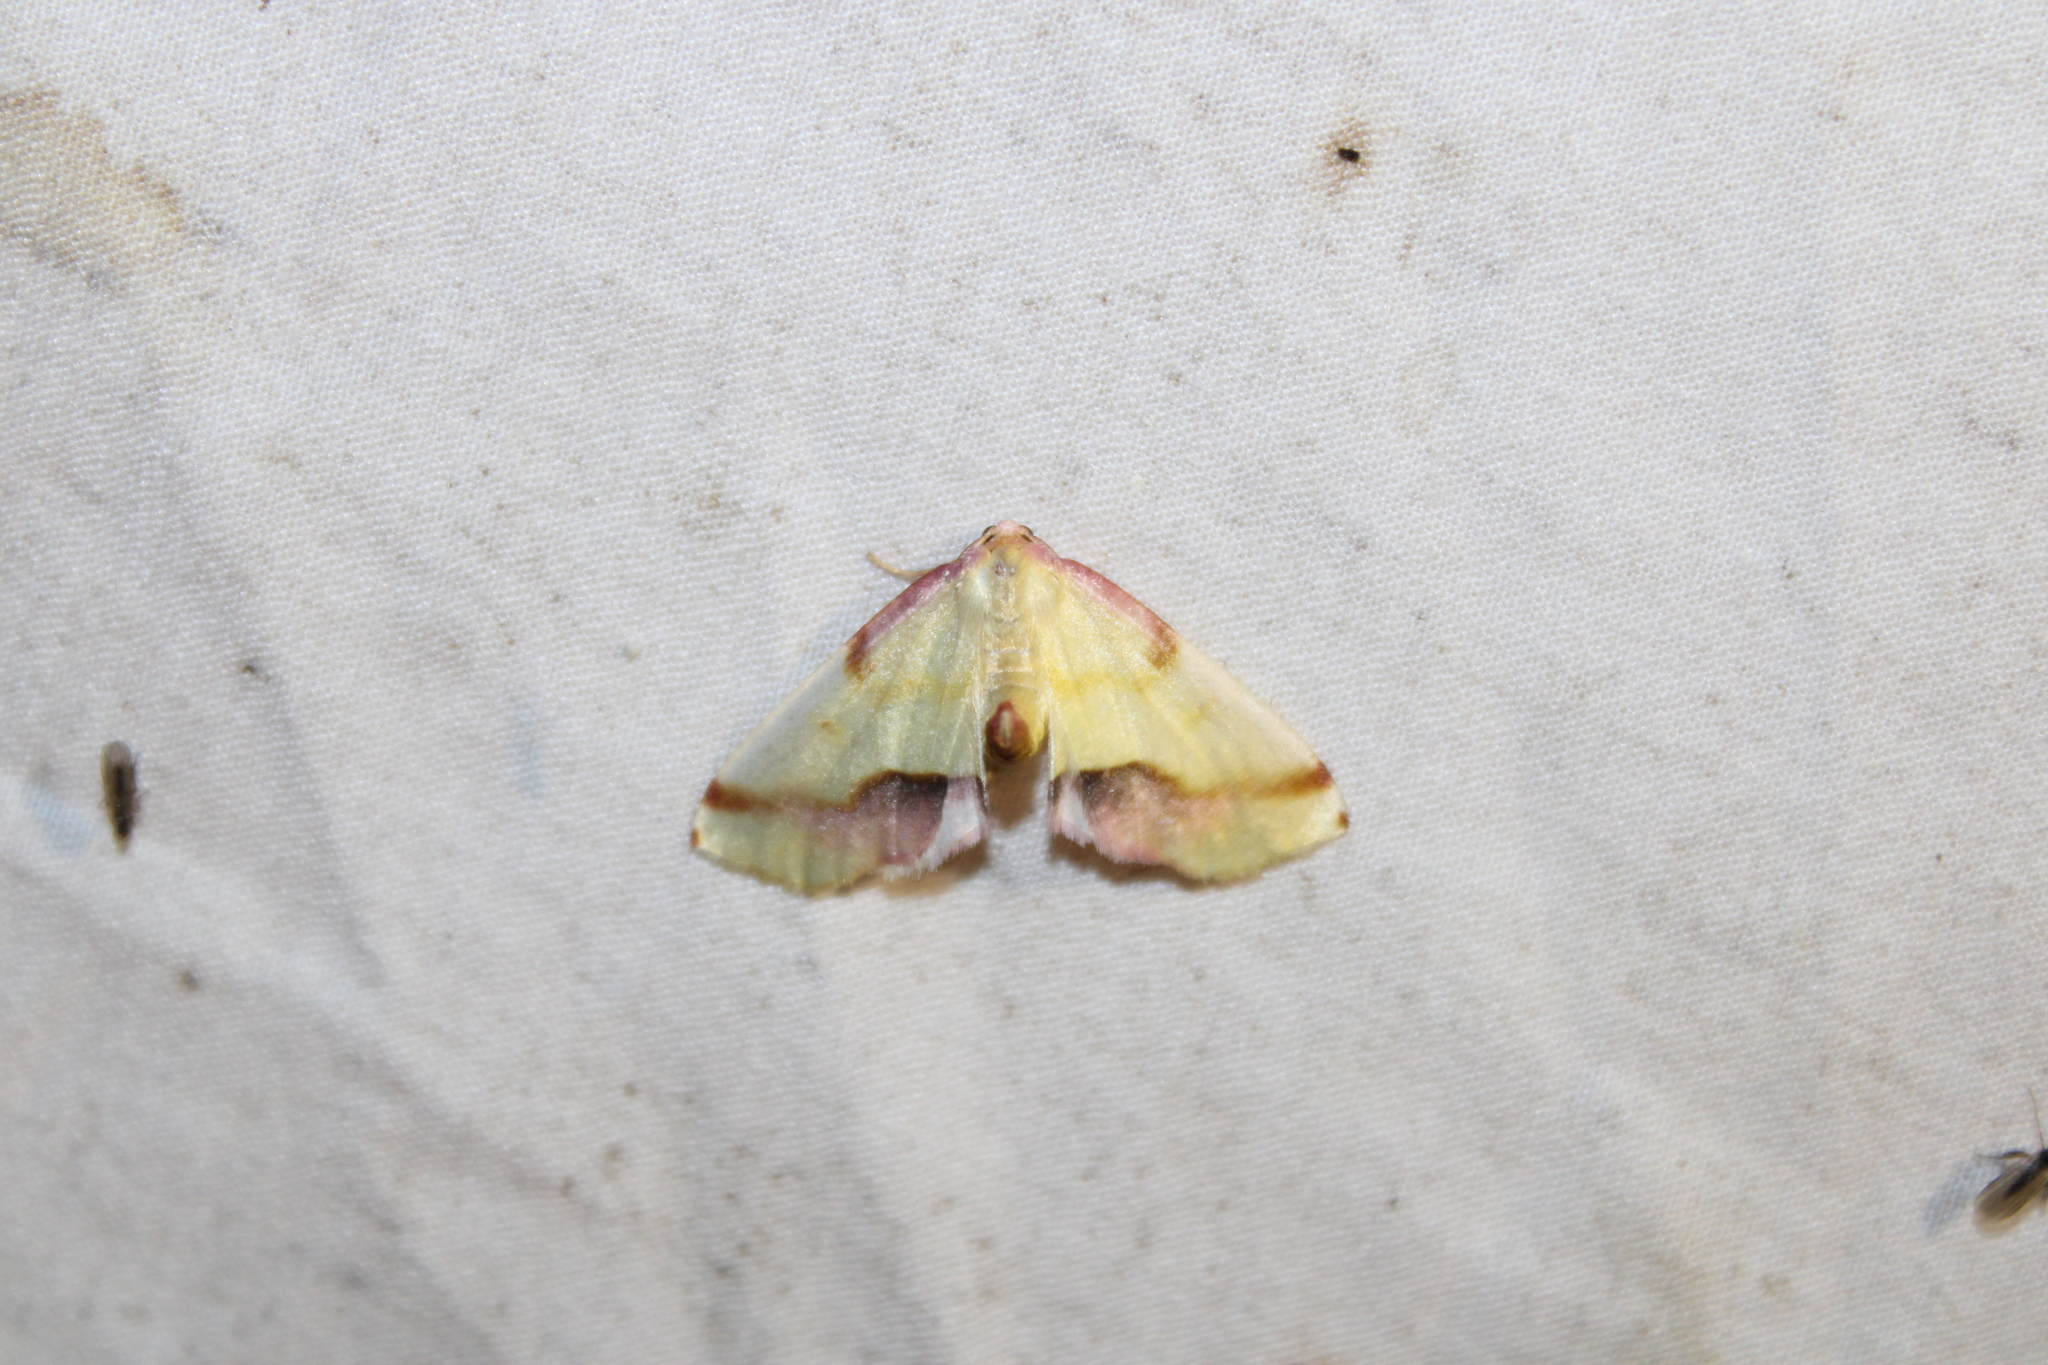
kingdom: Animalia
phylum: Arthropoda
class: Insecta
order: Lepidoptera
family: Geometridae
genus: Plagodis
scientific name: Plagodis serinaria
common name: Lemon plagodis
